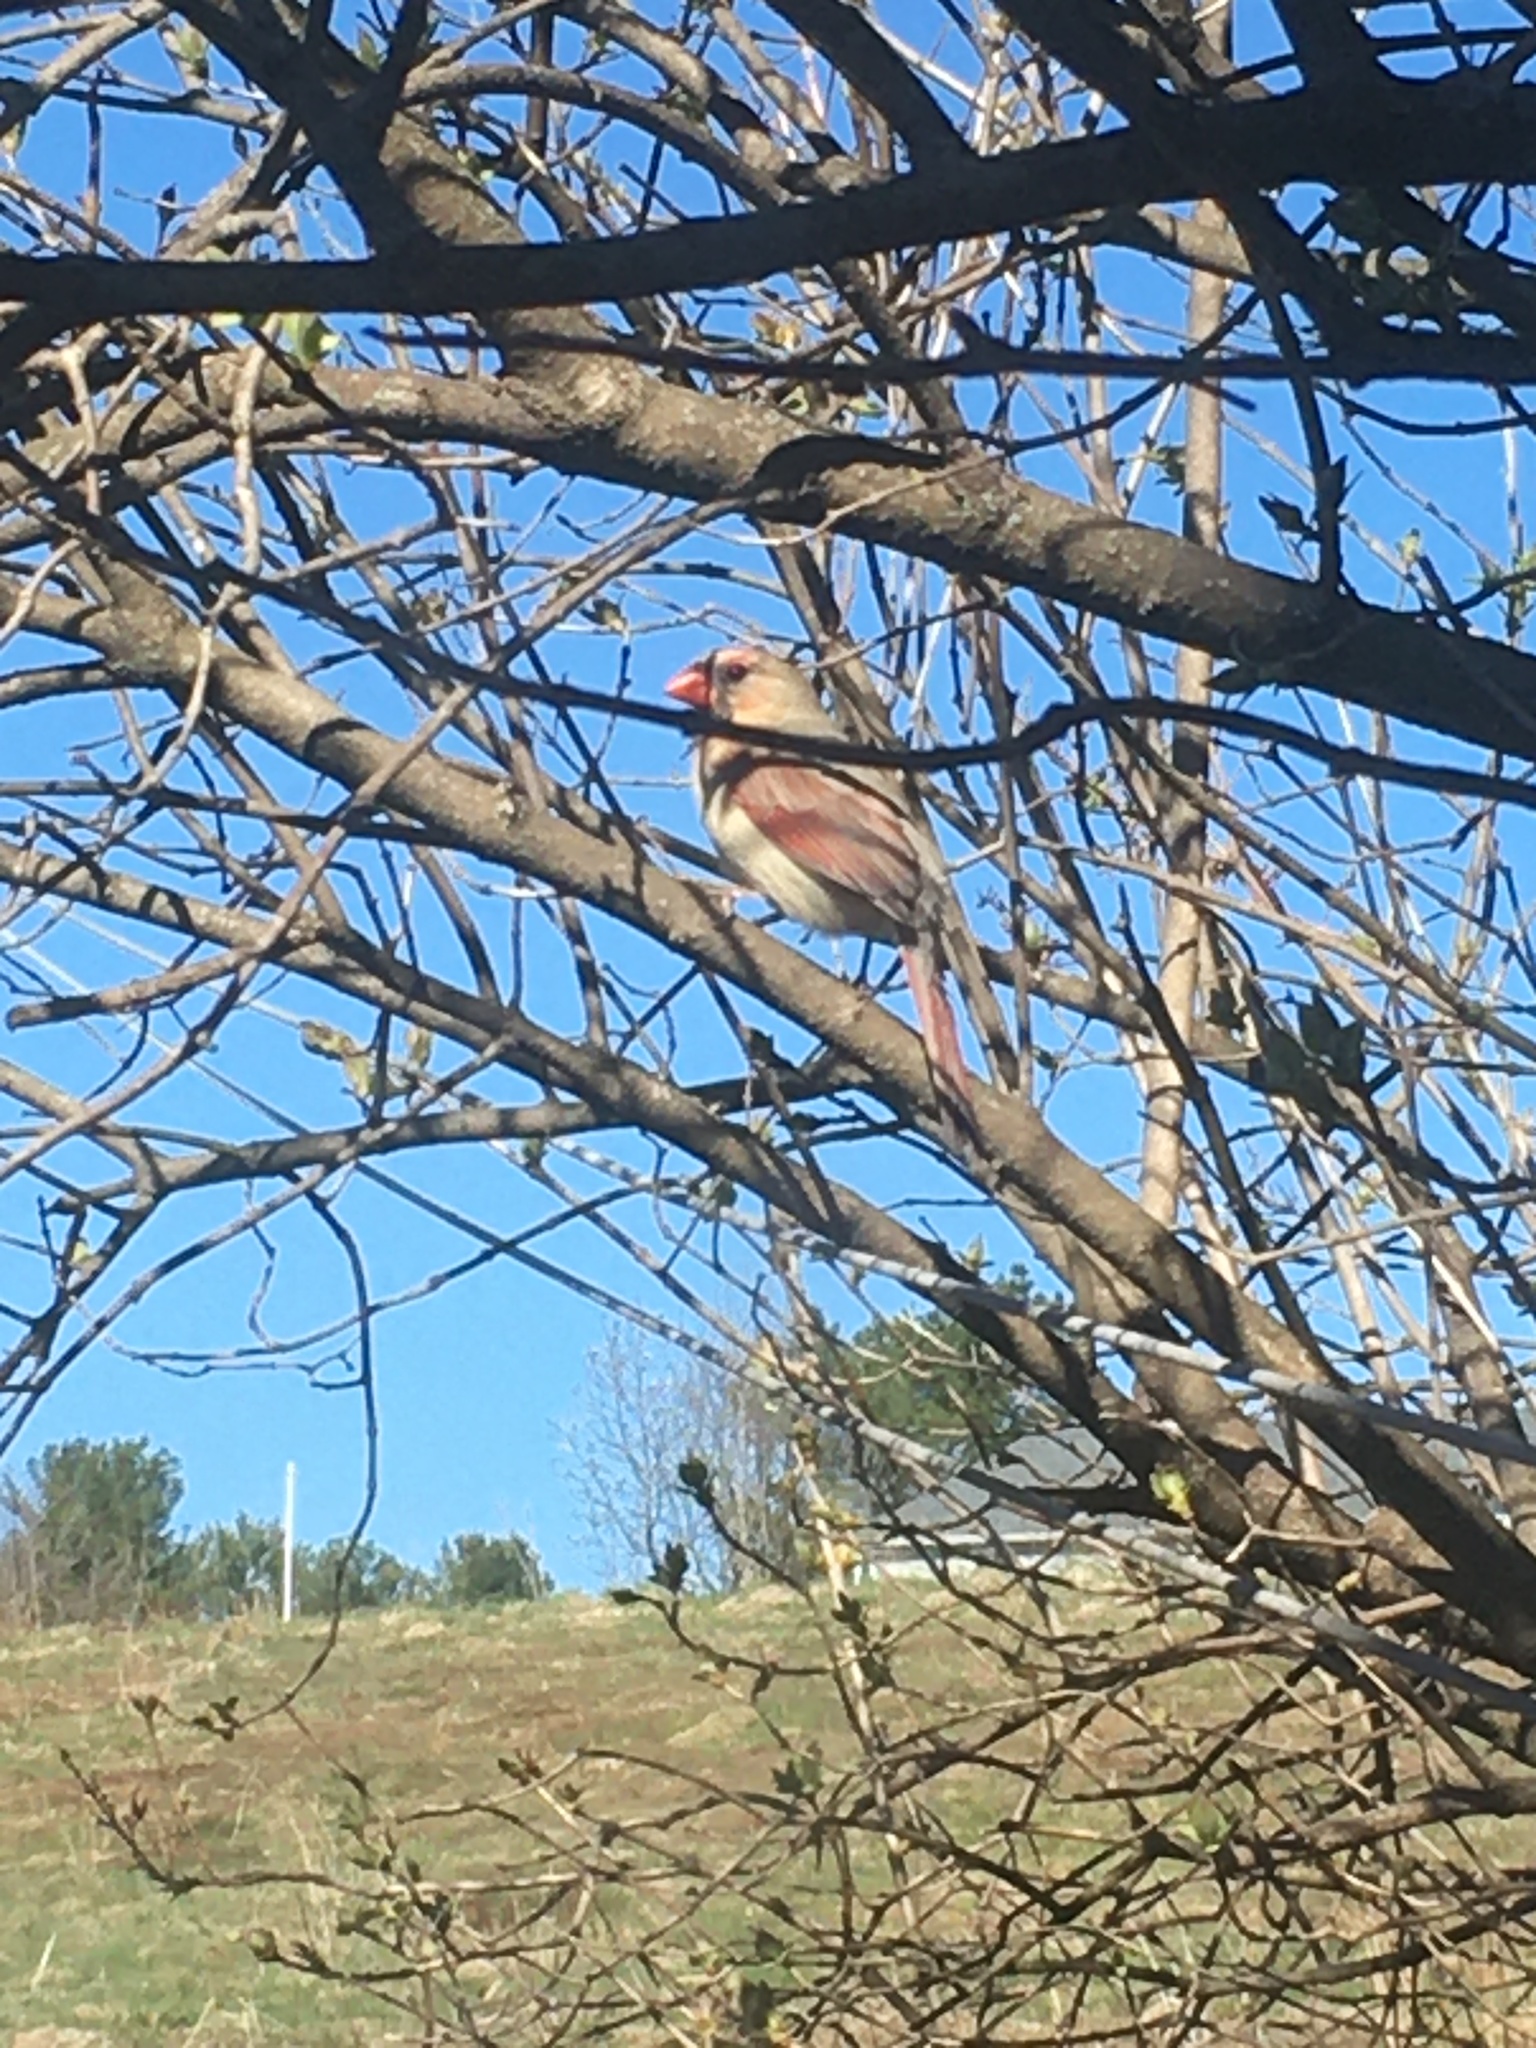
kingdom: Animalia
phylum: Chordata
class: Aves
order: Passeriformes
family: Cardinalidae
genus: Cardinalis
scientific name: Cardinalis cardinalis
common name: Northern cardinal
